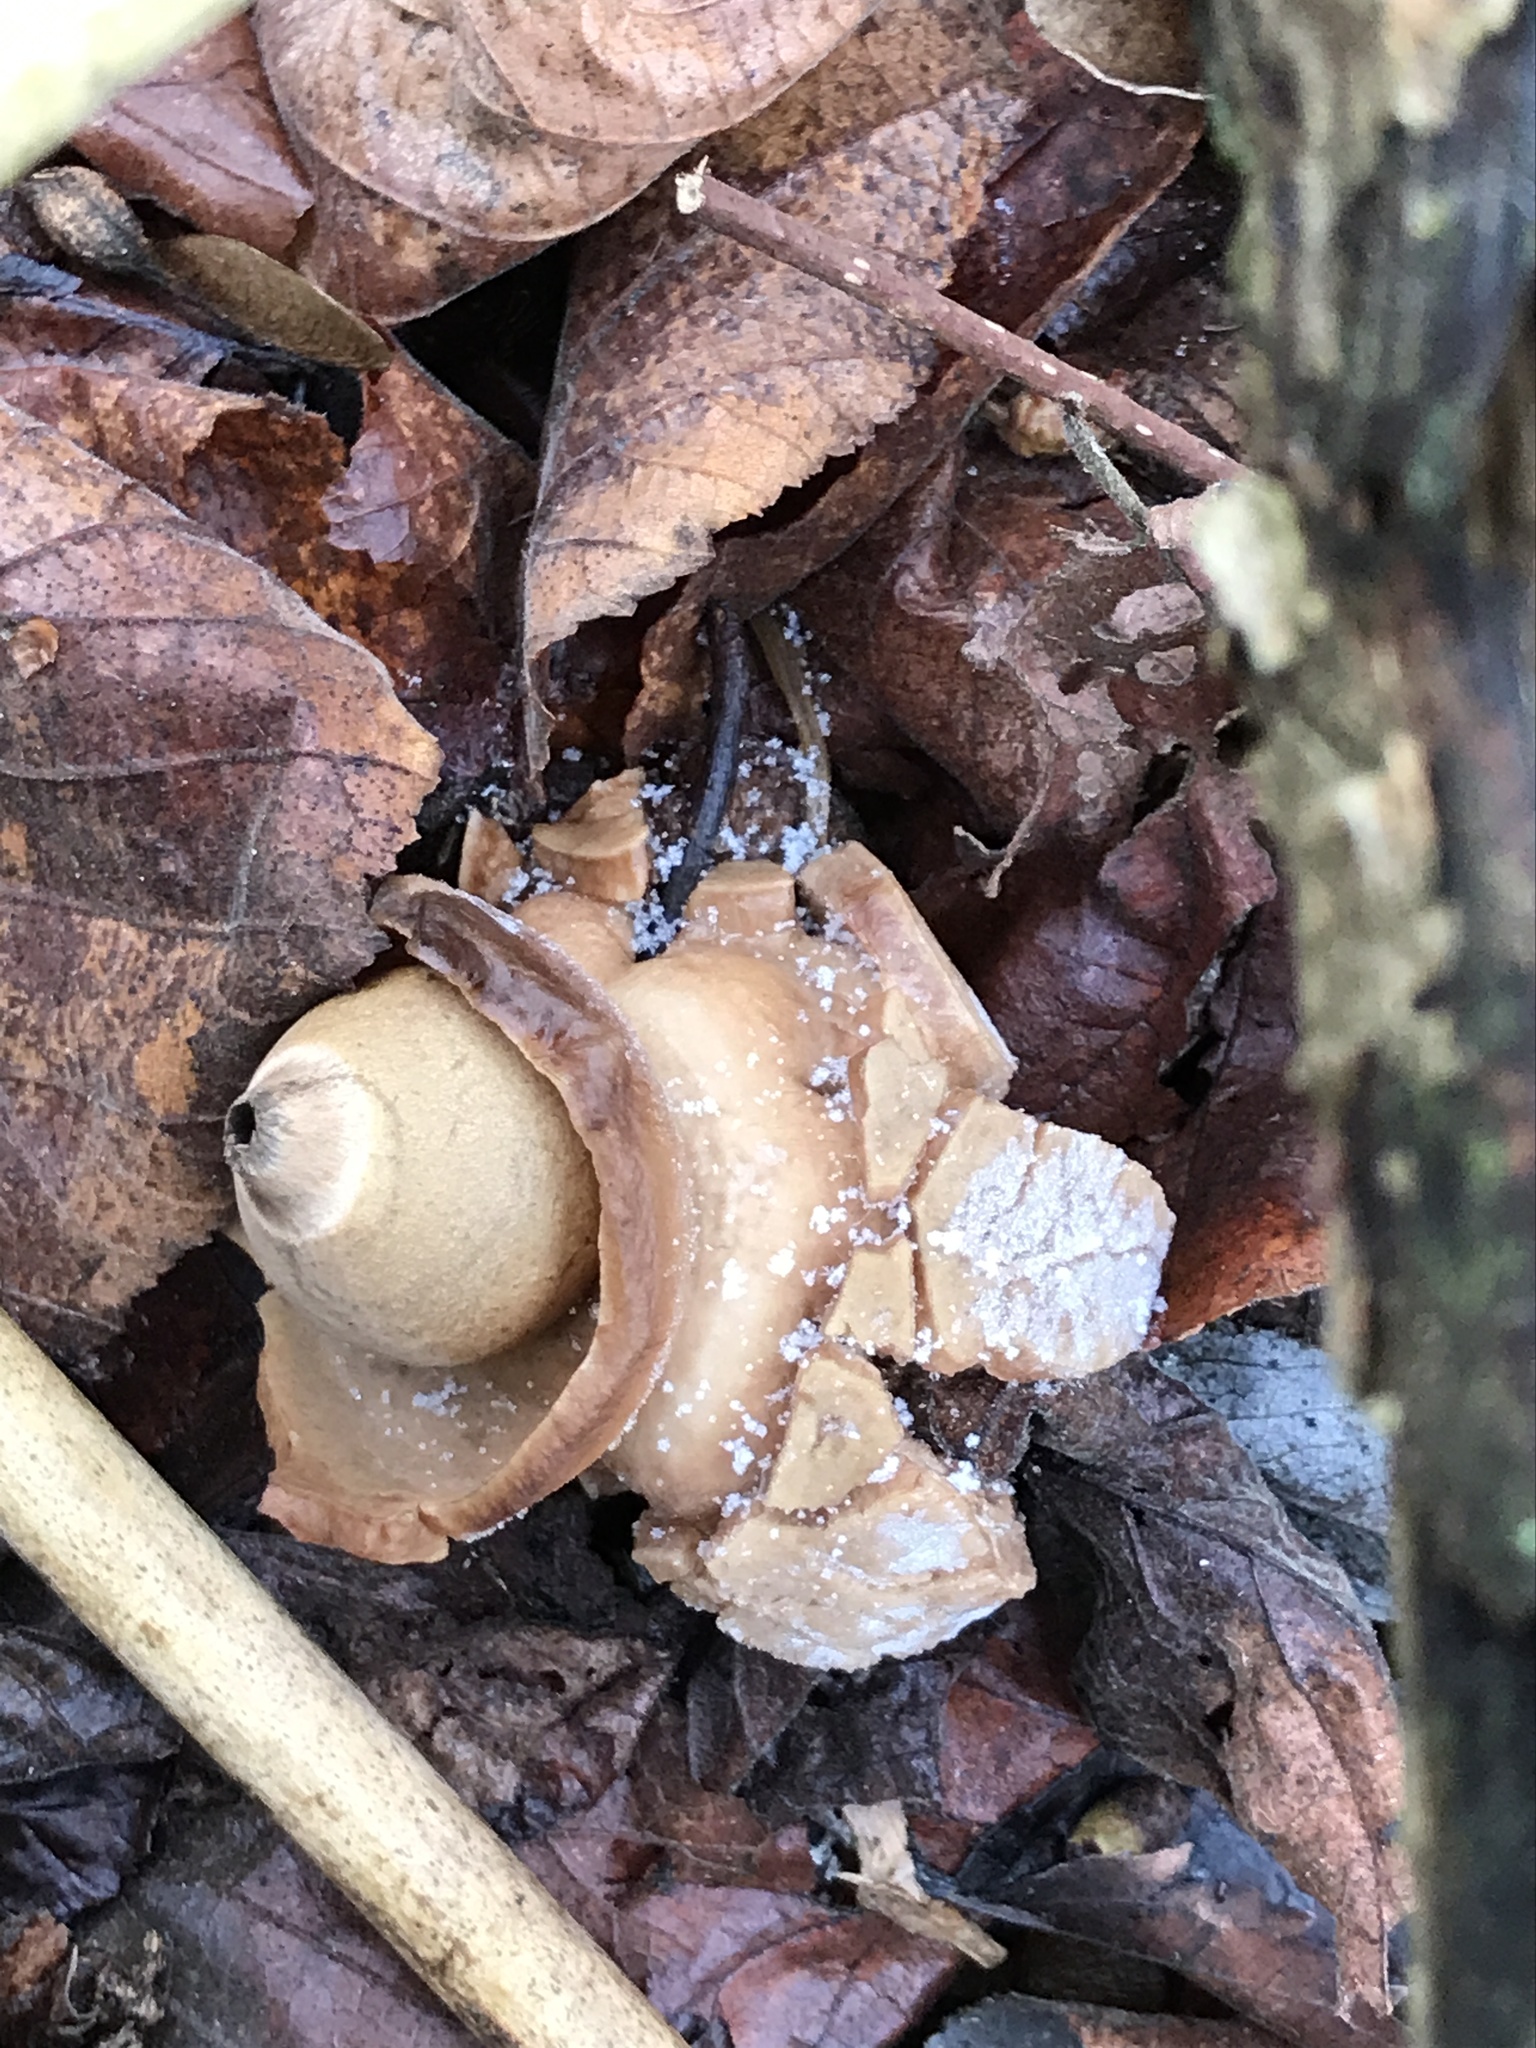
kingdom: Fungi
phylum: Basidiomycota
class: Agaricomycetes
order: Geastrales
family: Geastraceae
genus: Geastrum
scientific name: Geastrum michelianum
